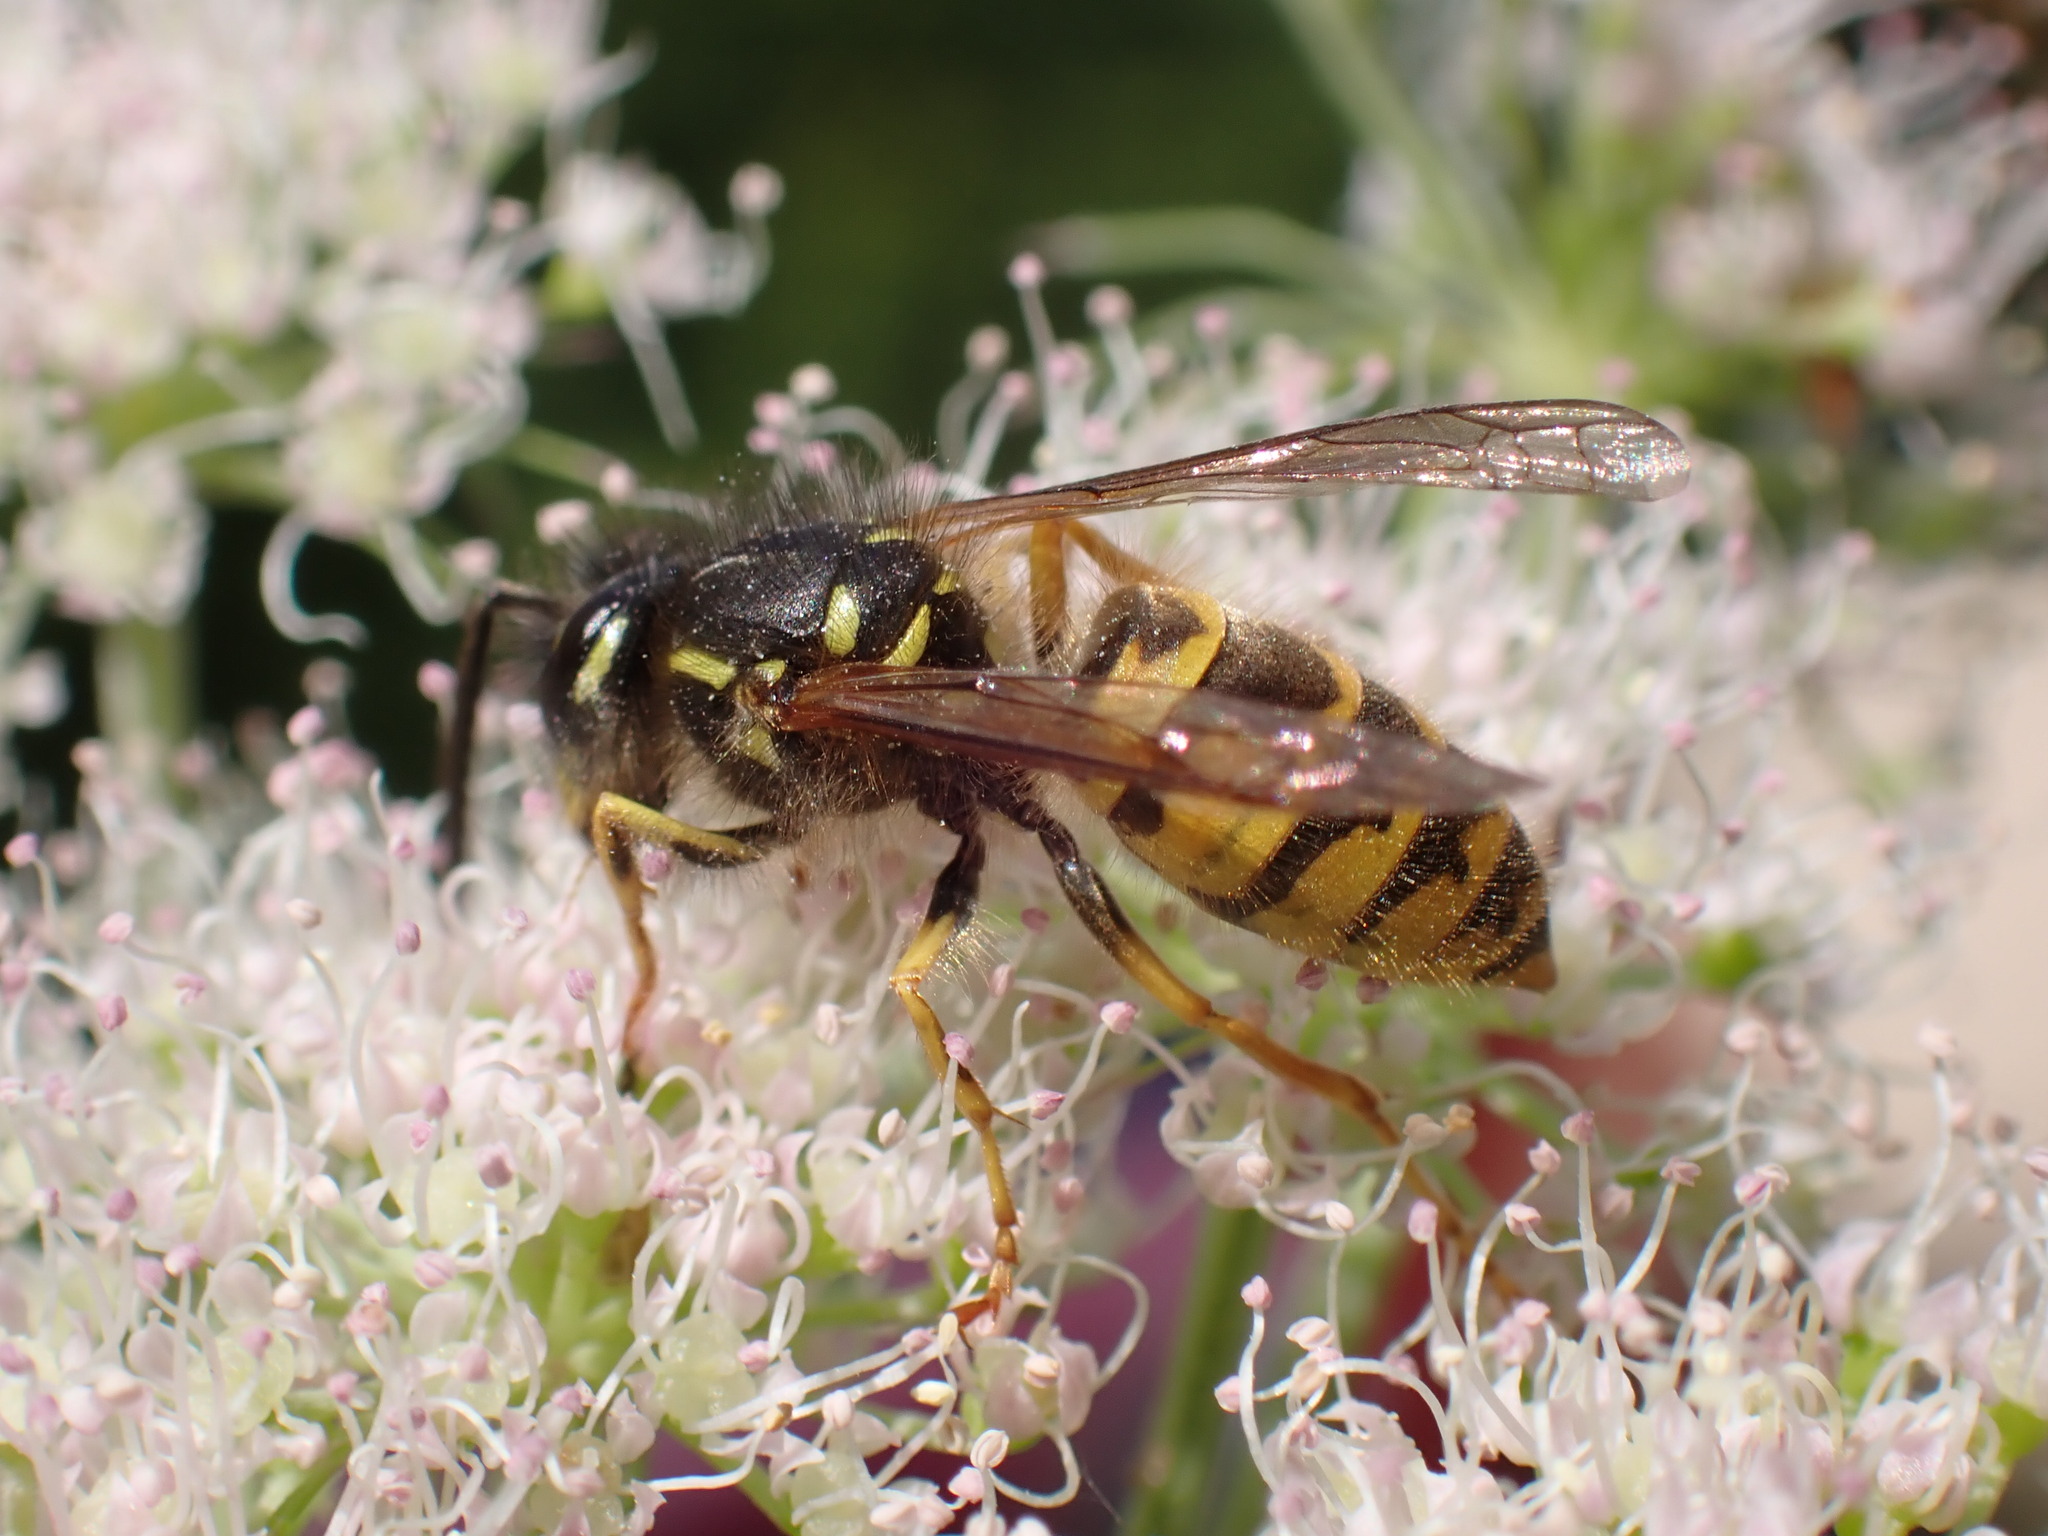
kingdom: Animalia
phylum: Arthropoda
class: Insecta
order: Hymenoptera
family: Vespidae
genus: Vespula
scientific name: Vespula vulgaris
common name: Common wasp
